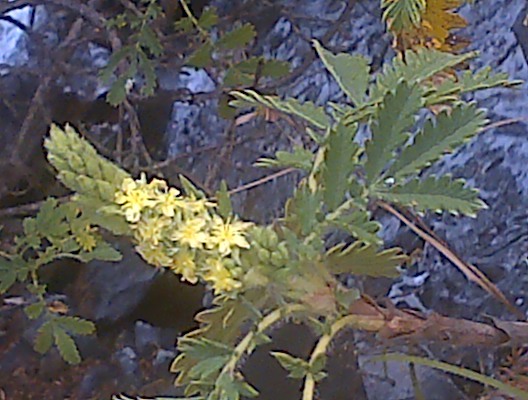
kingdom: Plantae
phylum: Tracheophyta
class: Magnoliopsida
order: Rosales
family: Rosaceae
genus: Leucosidea
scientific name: Leucosidea sericea
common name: Oldwood
